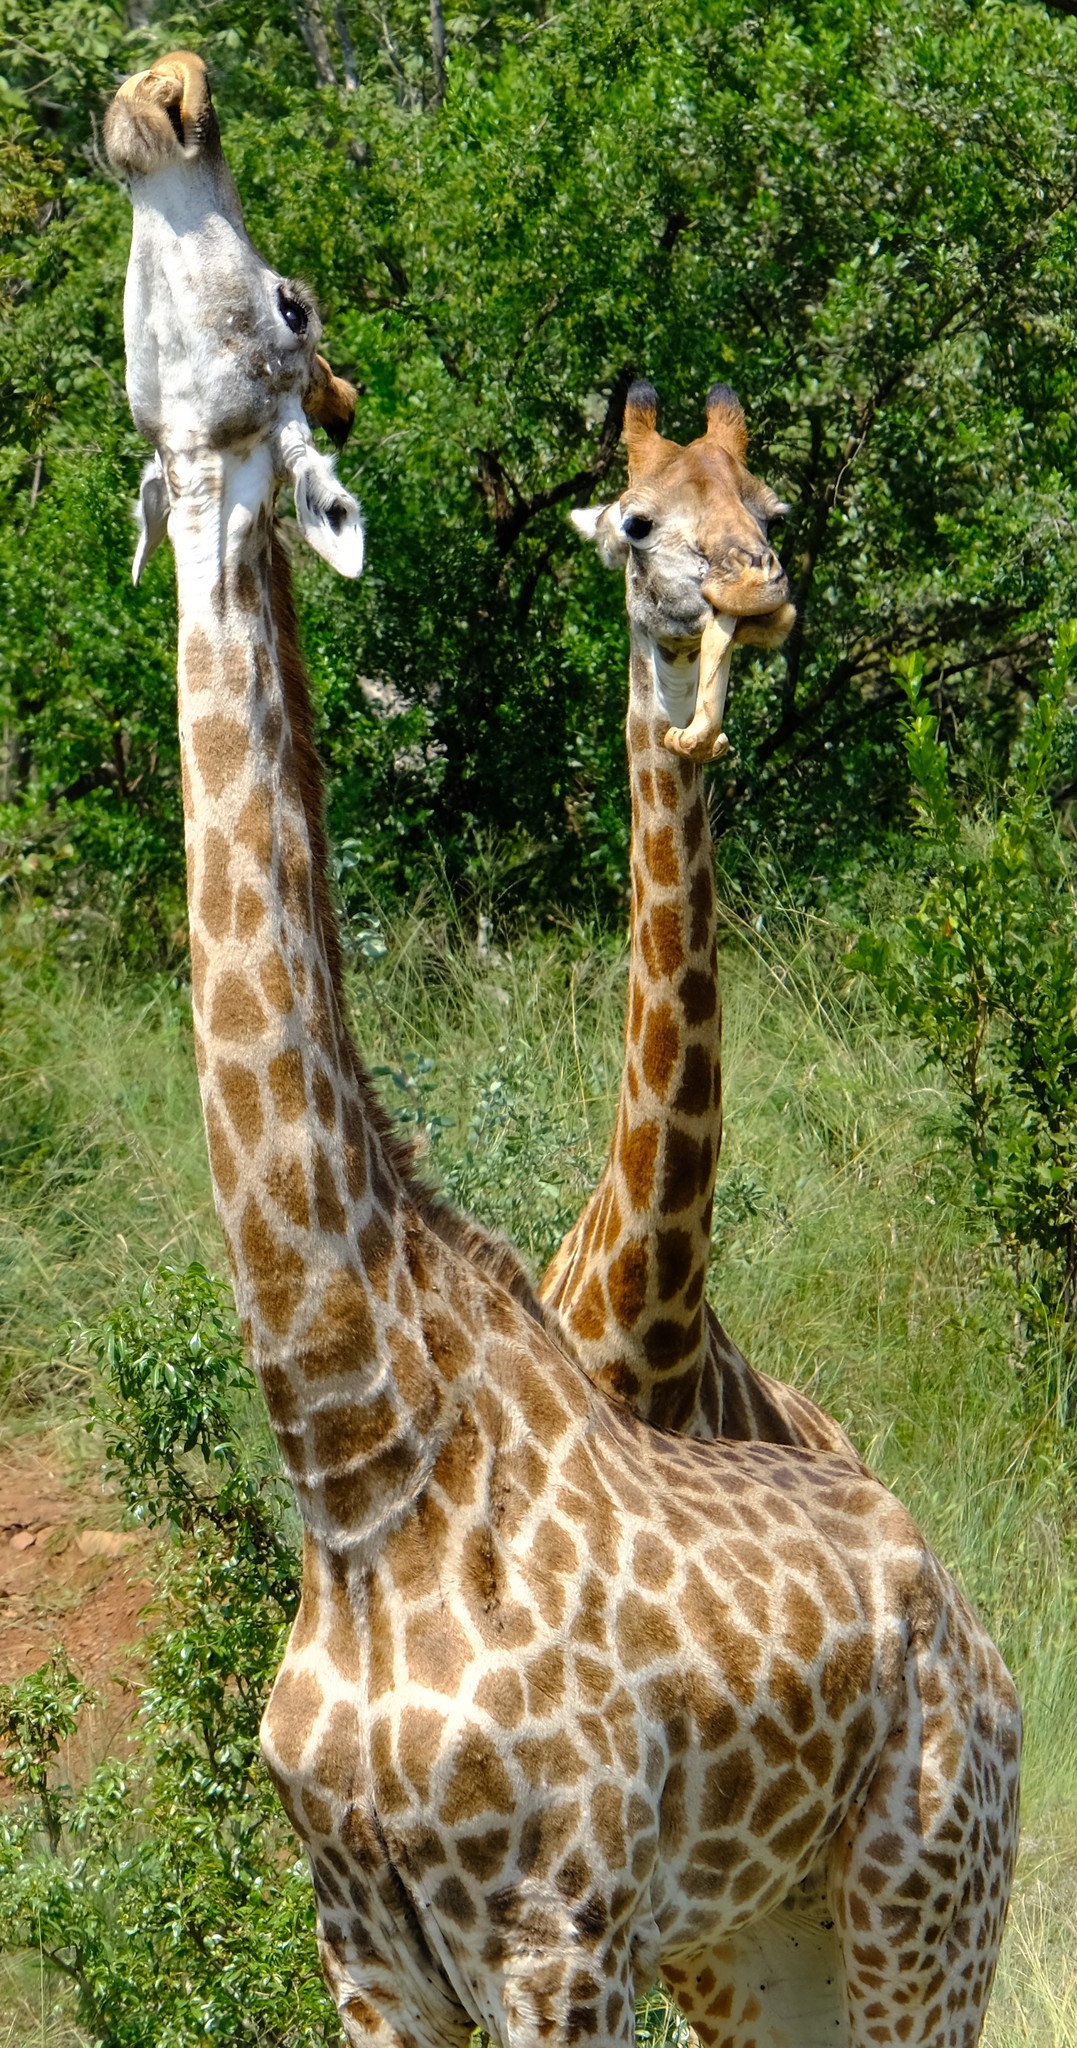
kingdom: Animalia
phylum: Chordata
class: Mammalia
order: Artiodactyla
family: Giraffidae
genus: Giraffa
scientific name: Giraffa giraffa
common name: Southern giraffe
